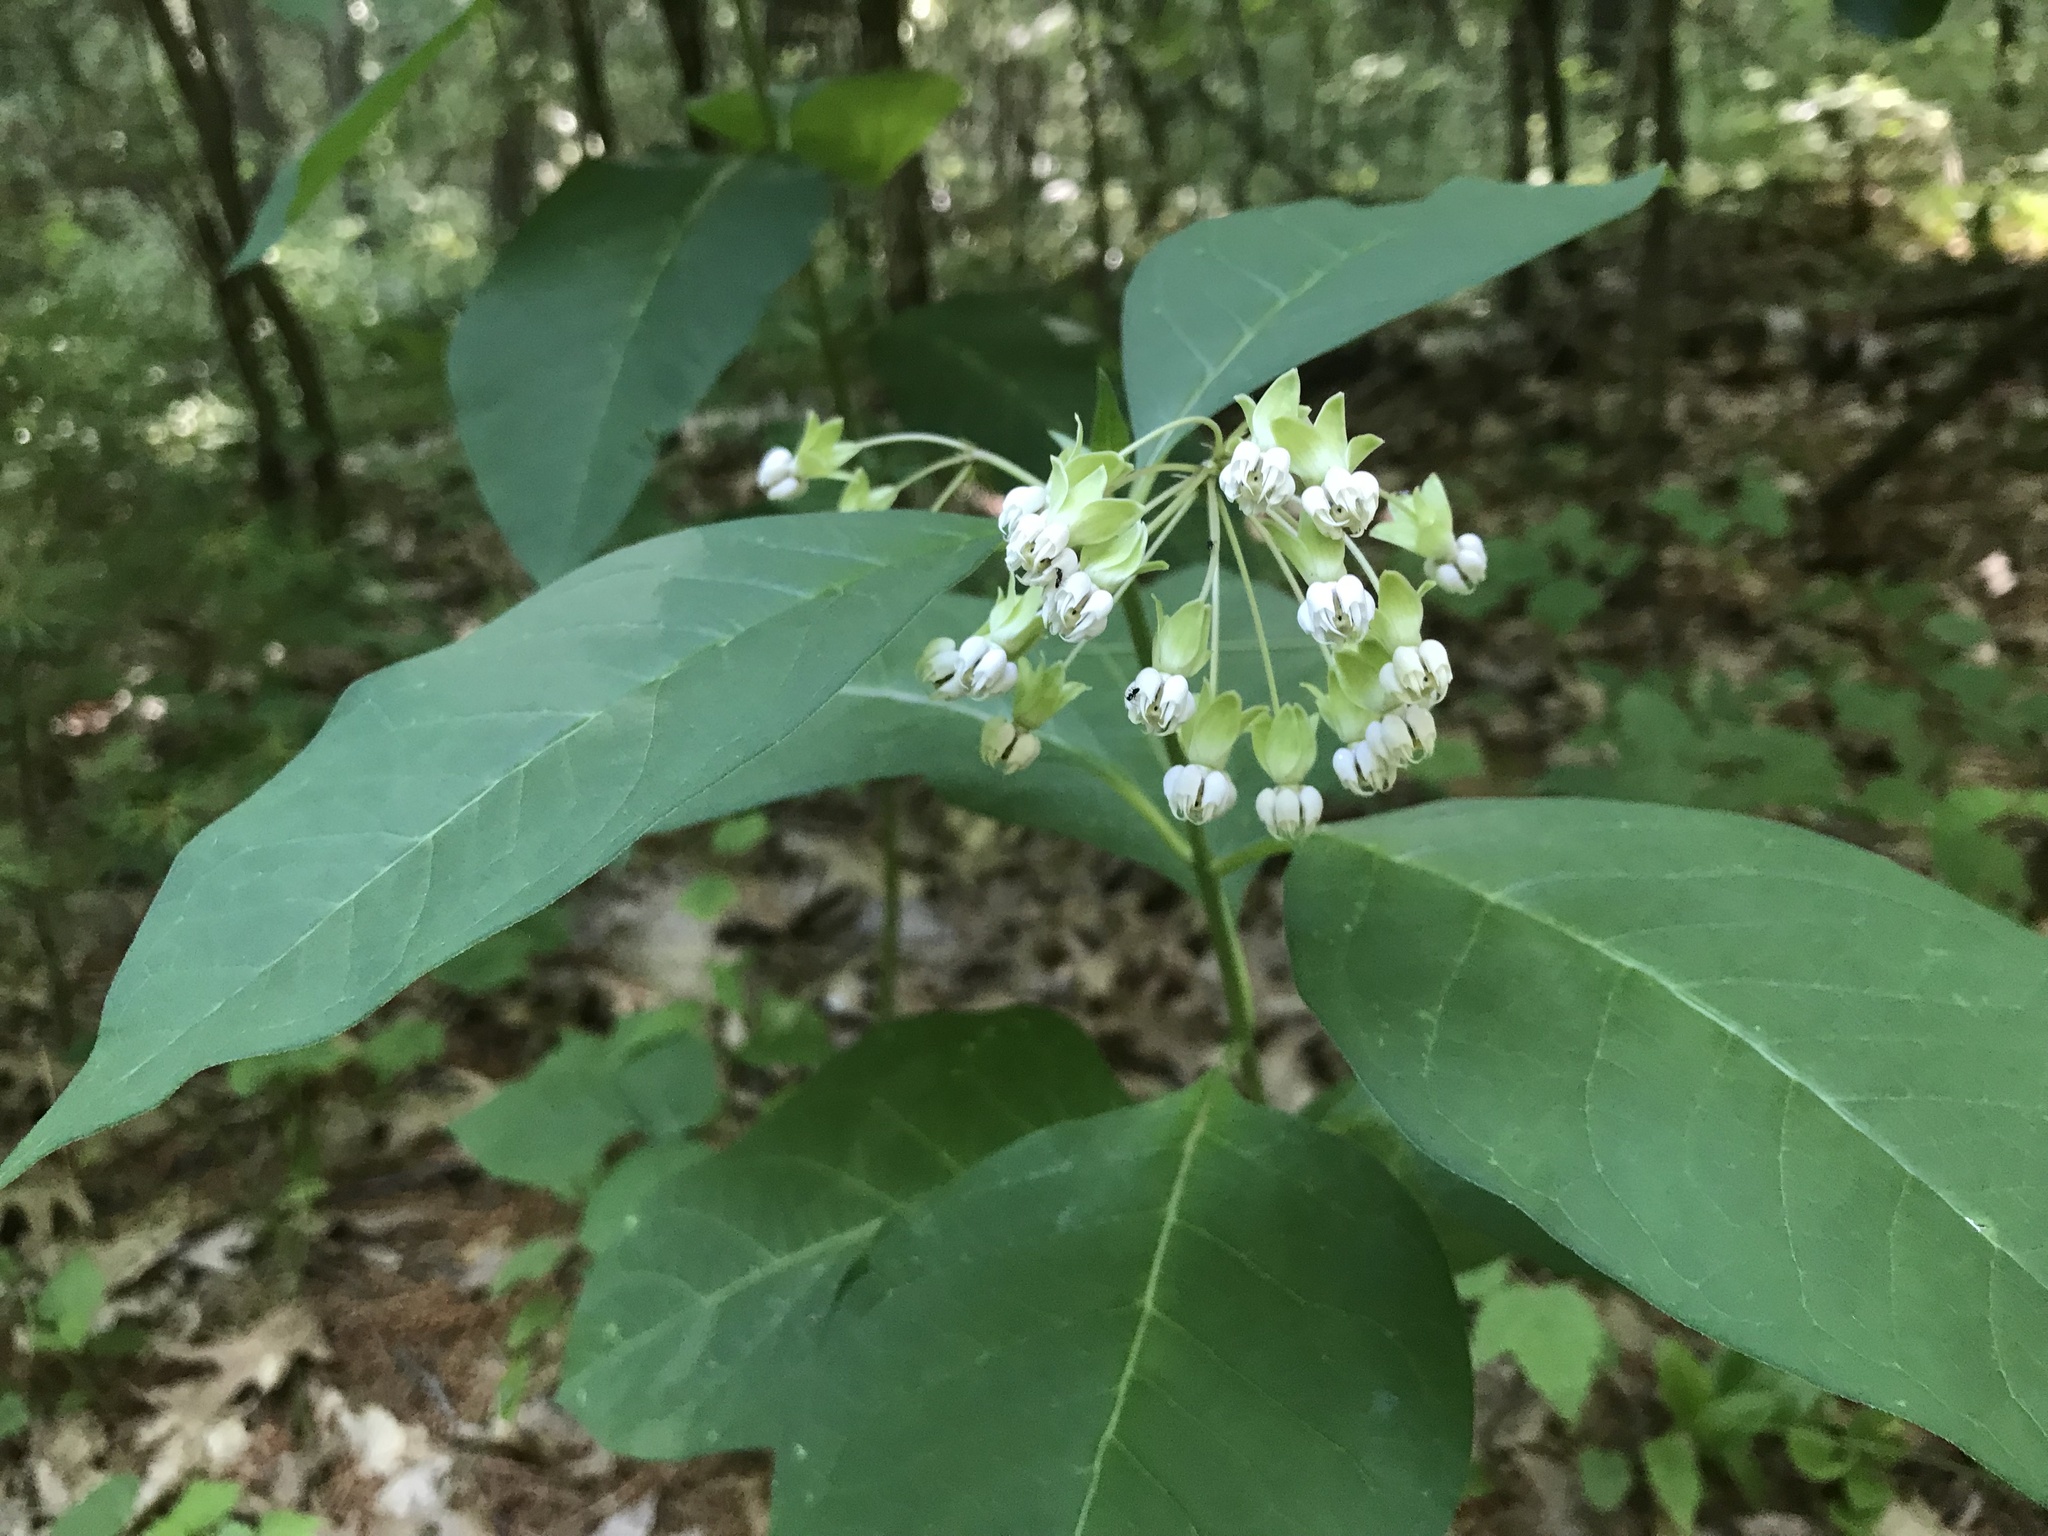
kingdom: Plantae
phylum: Tracheophyta
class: Magnoliopsida
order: Gentianales
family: Apocynaceae
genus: Asclepias
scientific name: Asclepias exaltata
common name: Poke milkweed
